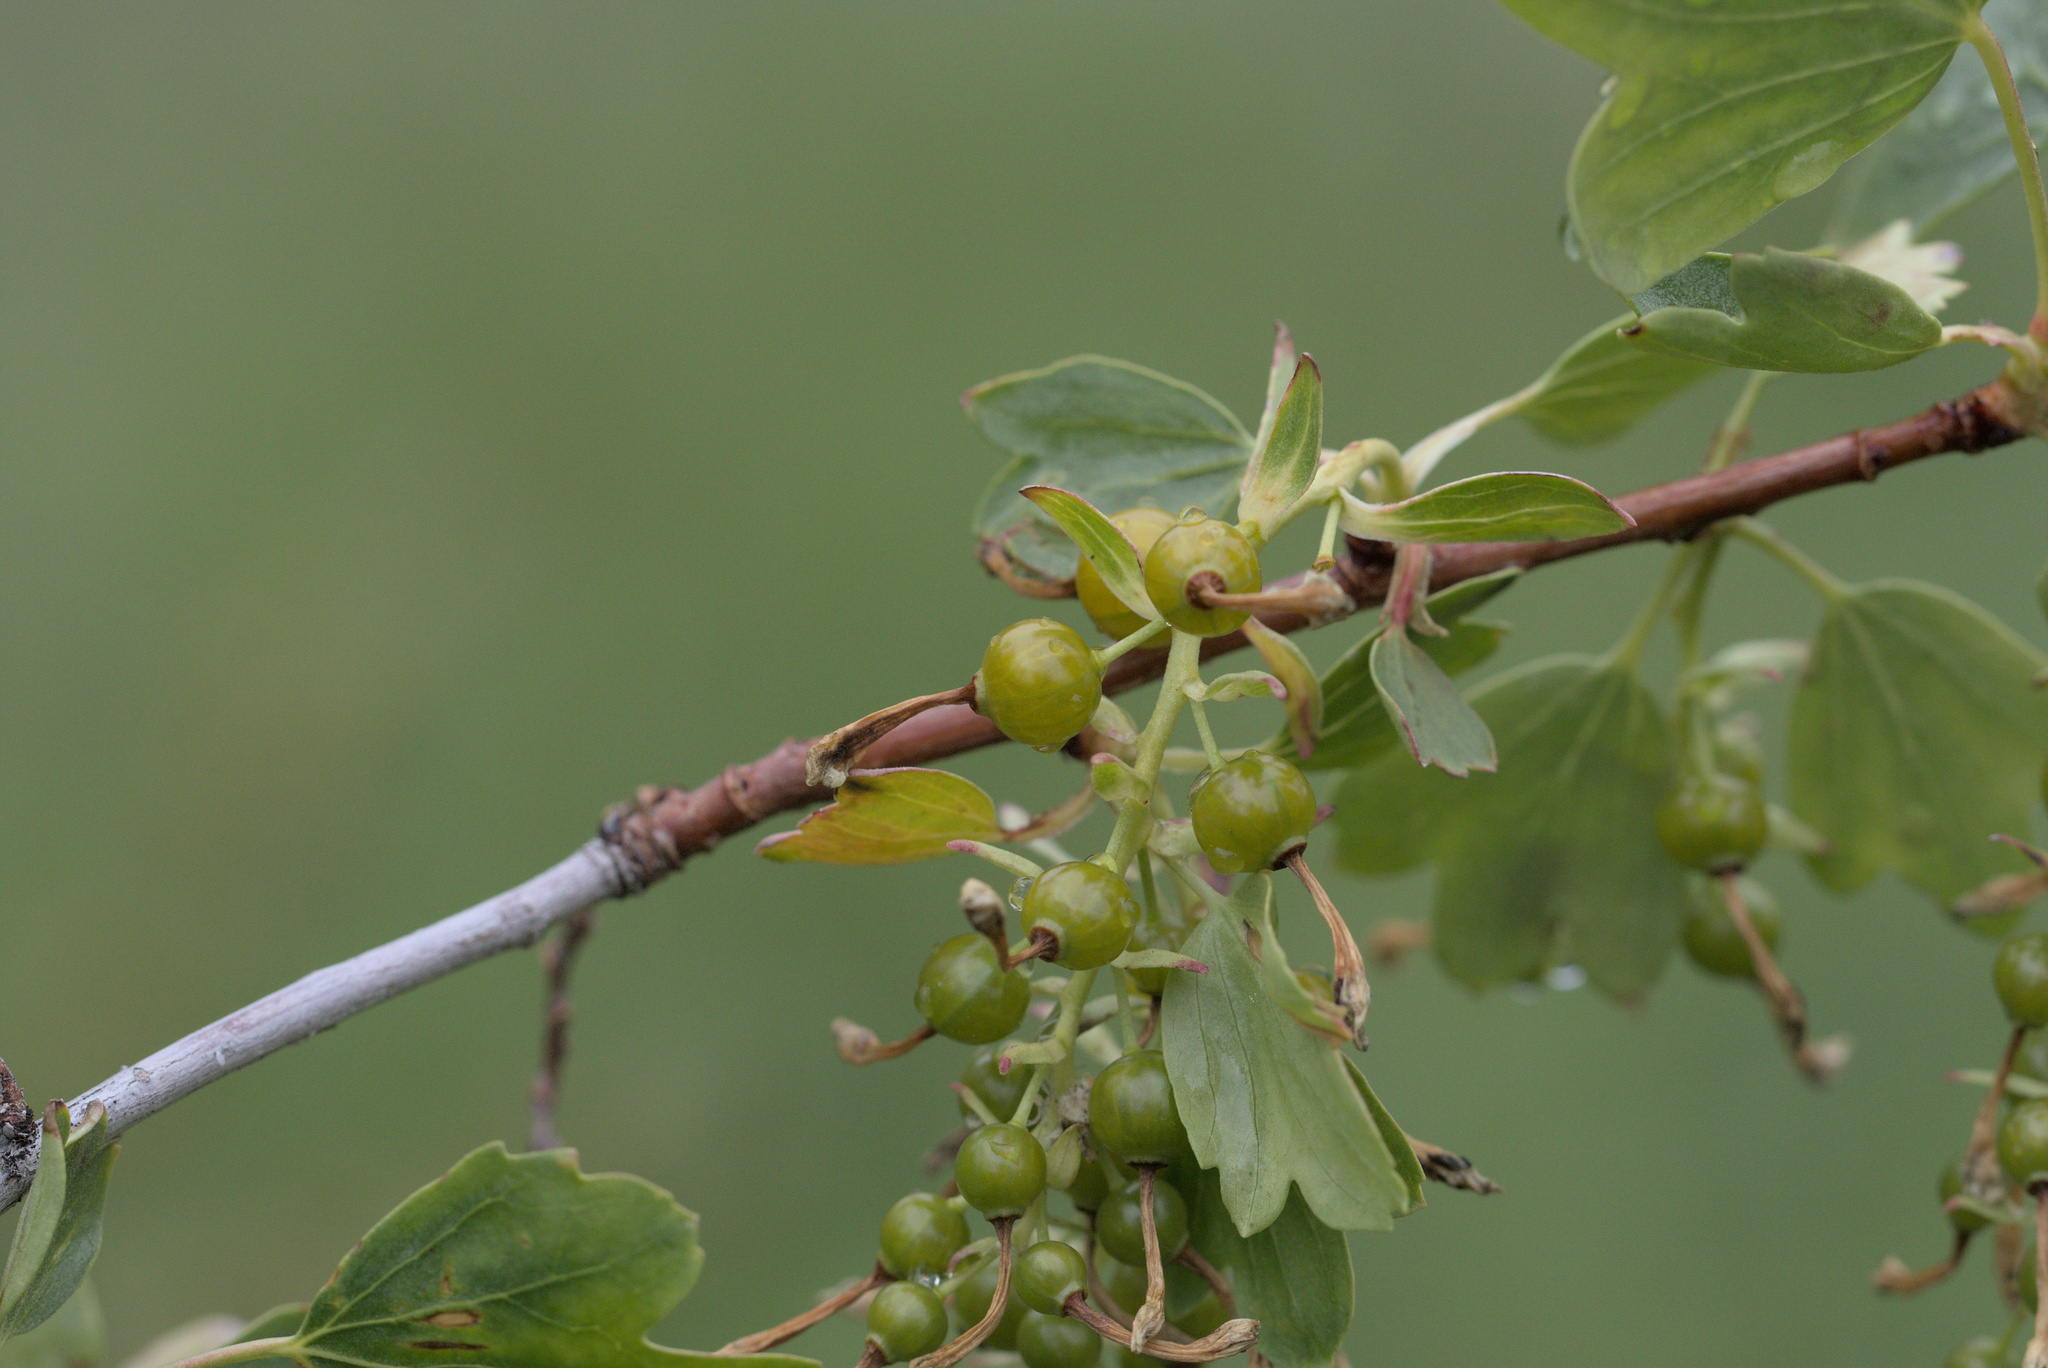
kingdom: Plantae
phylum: Tracheophyta
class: Magnoliopsida
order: Saxifragales
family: Grossulariaceae
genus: Ribes
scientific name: Ribes aureum
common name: Golden currant
